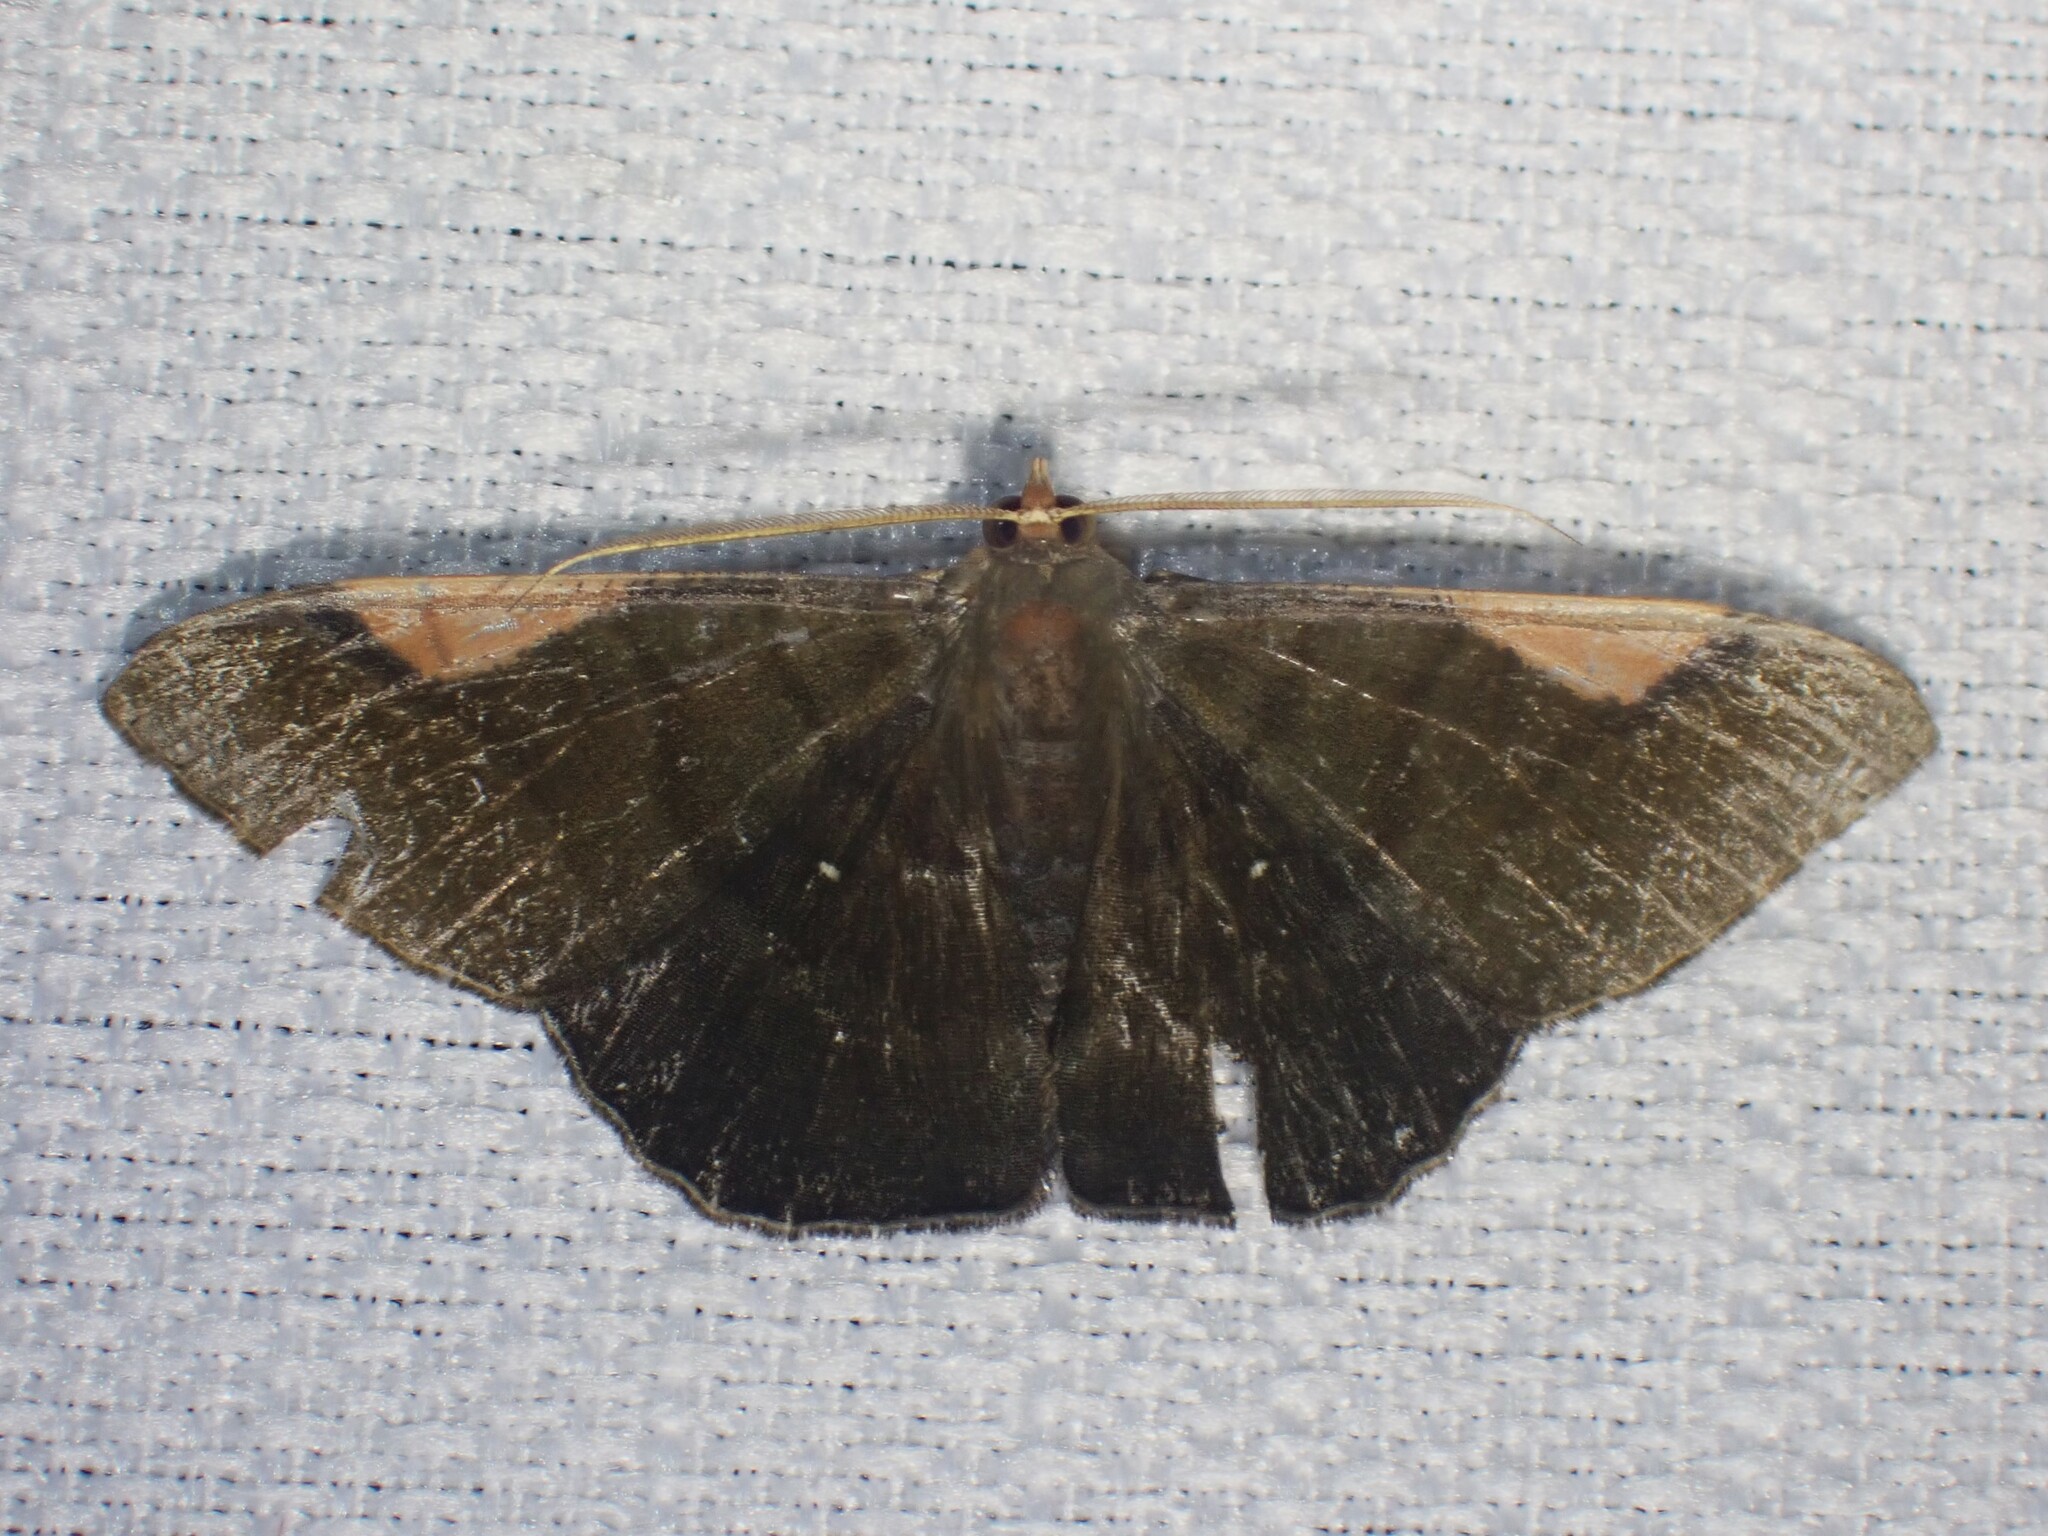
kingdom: Animalia
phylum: Arthropoda
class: Insecta
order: Lepidoptera
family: Geometridae
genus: Sphacelodes
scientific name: Sphacelodes vulneraria
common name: Looper moth
